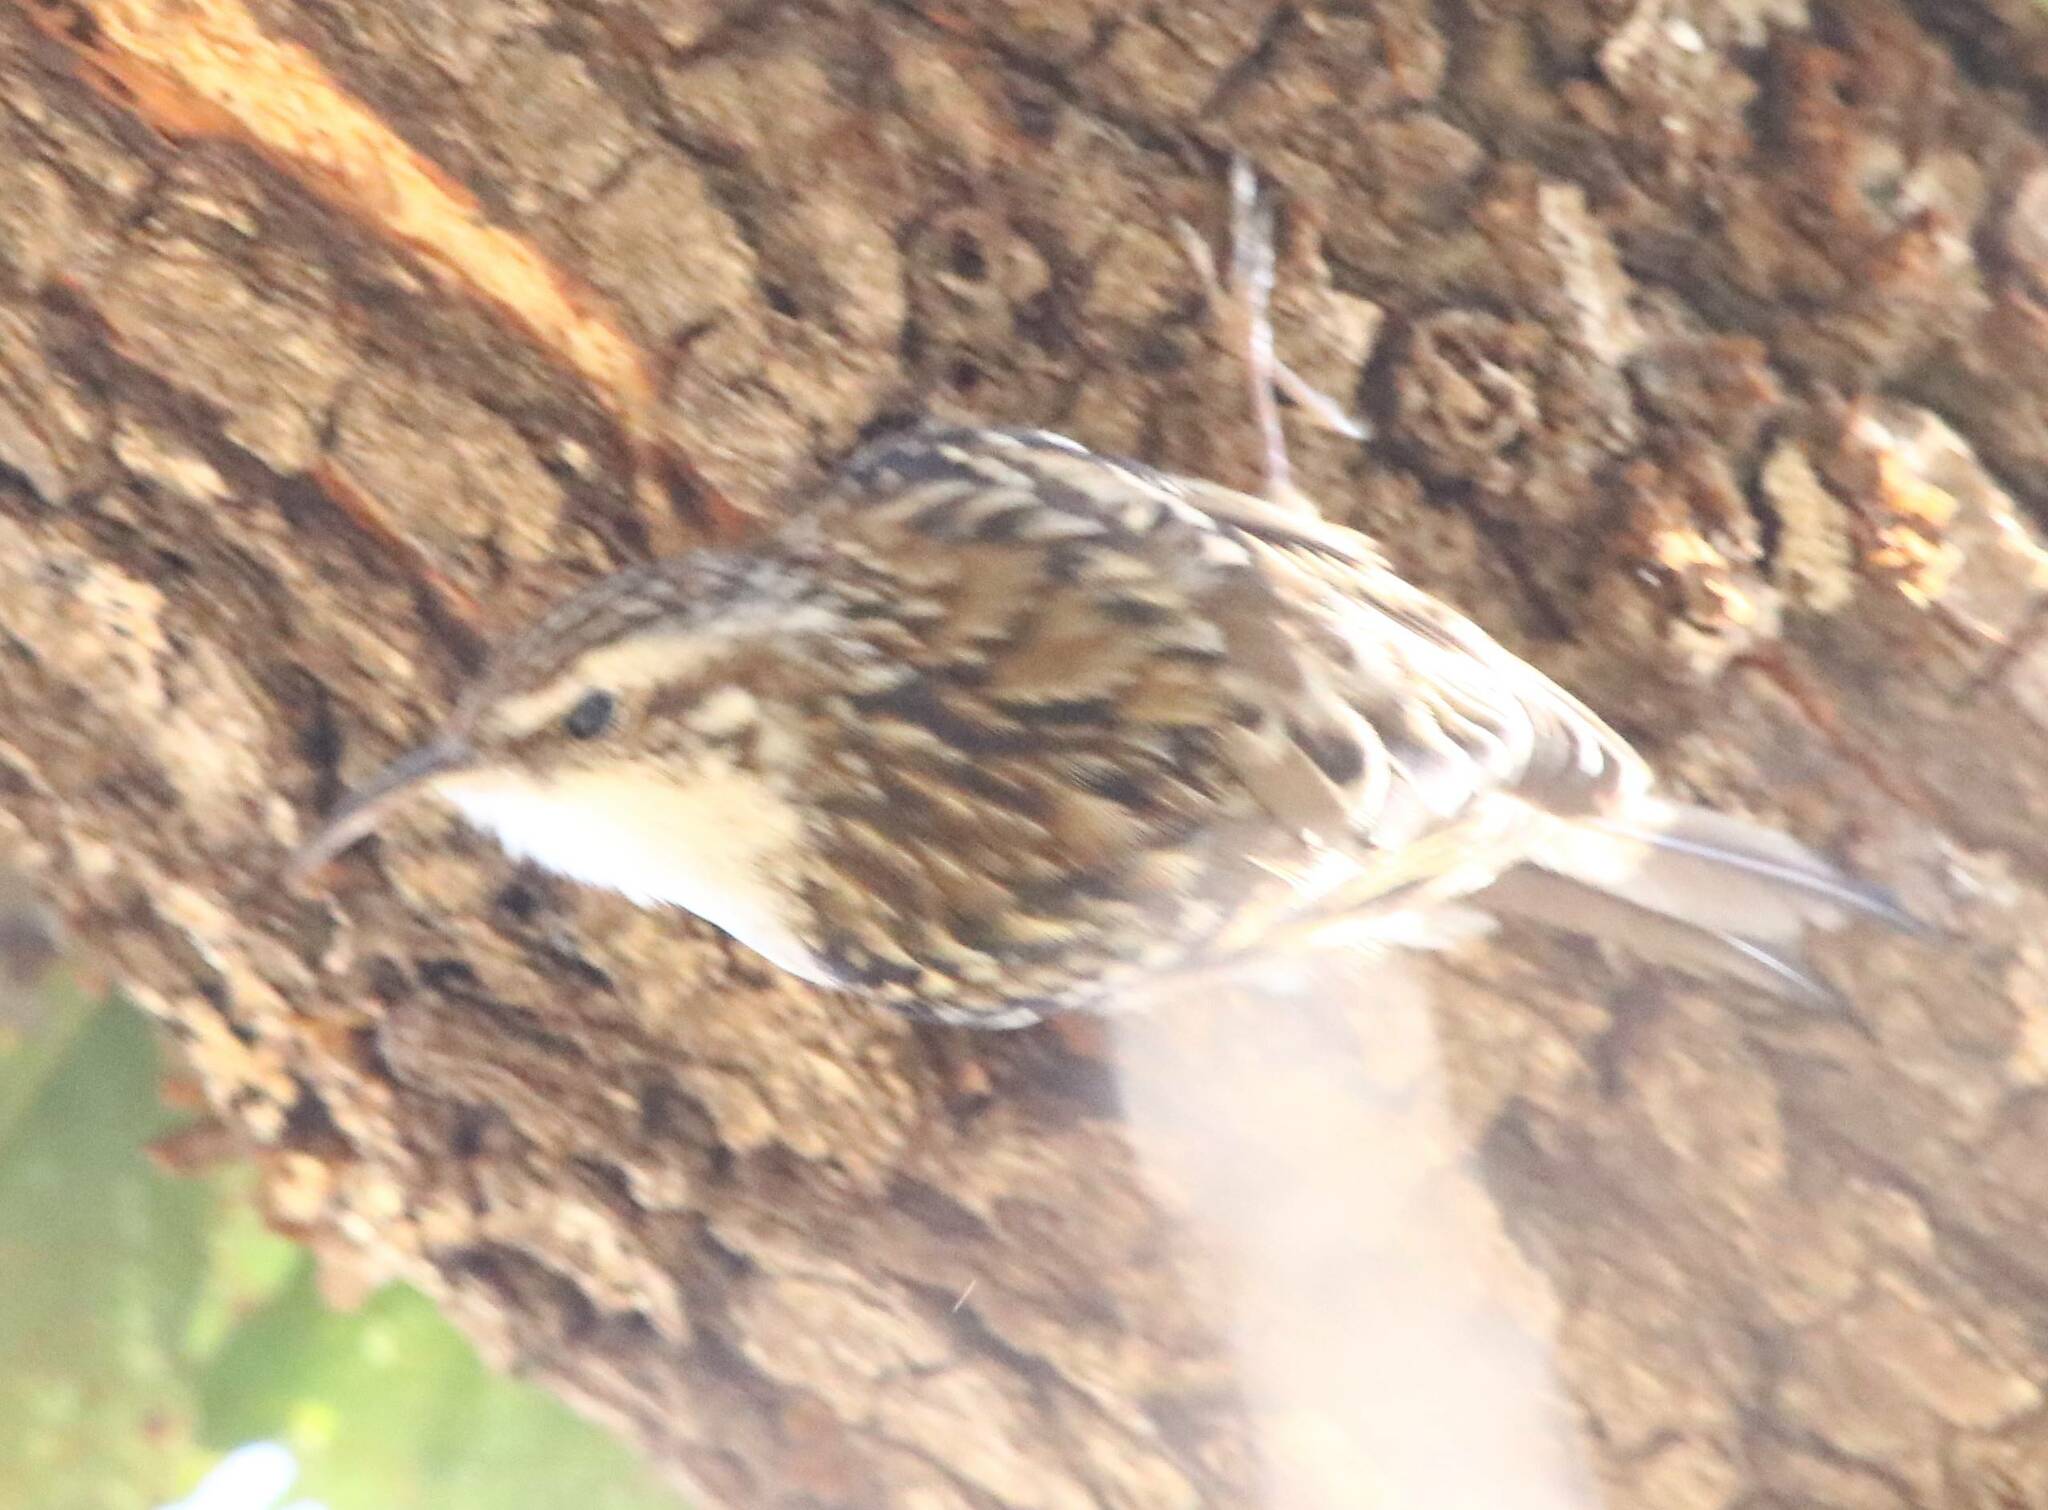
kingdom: Animalia
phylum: Chordata
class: Aves
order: Passeriformes
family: Certhiidae
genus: Certhia
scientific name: Certhia brachydactyla
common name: Short-toed treecreeper
